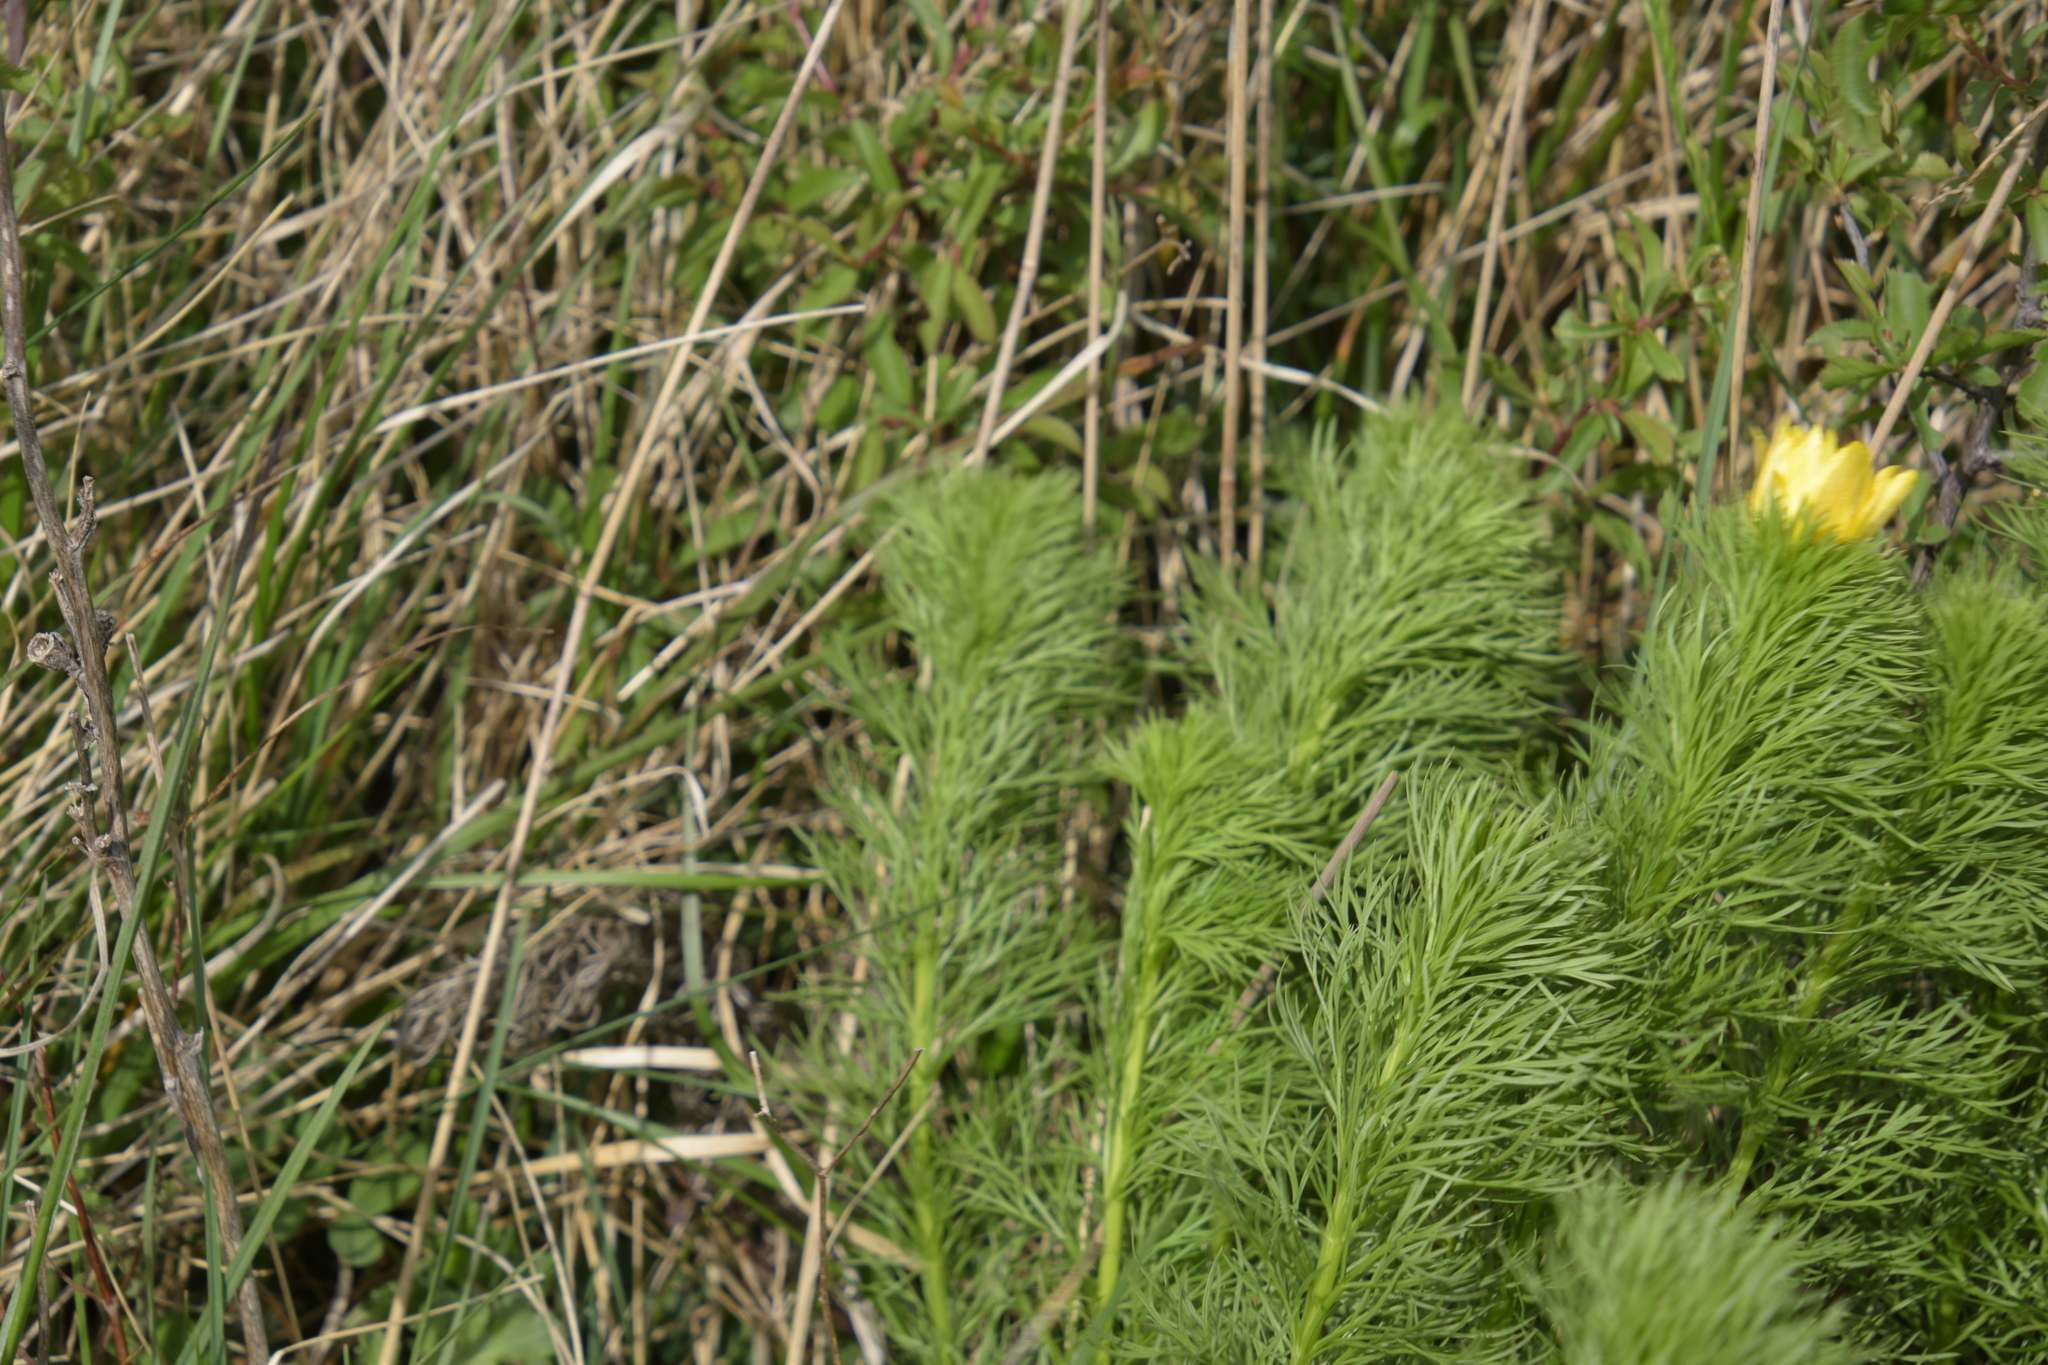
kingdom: Plantae
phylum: Tracheophyta
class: Magnoliopsida
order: Ranunculales
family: Ranunculaceae
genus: Adonis
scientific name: Adonis vernalis
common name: Yellow pheasants-eye
